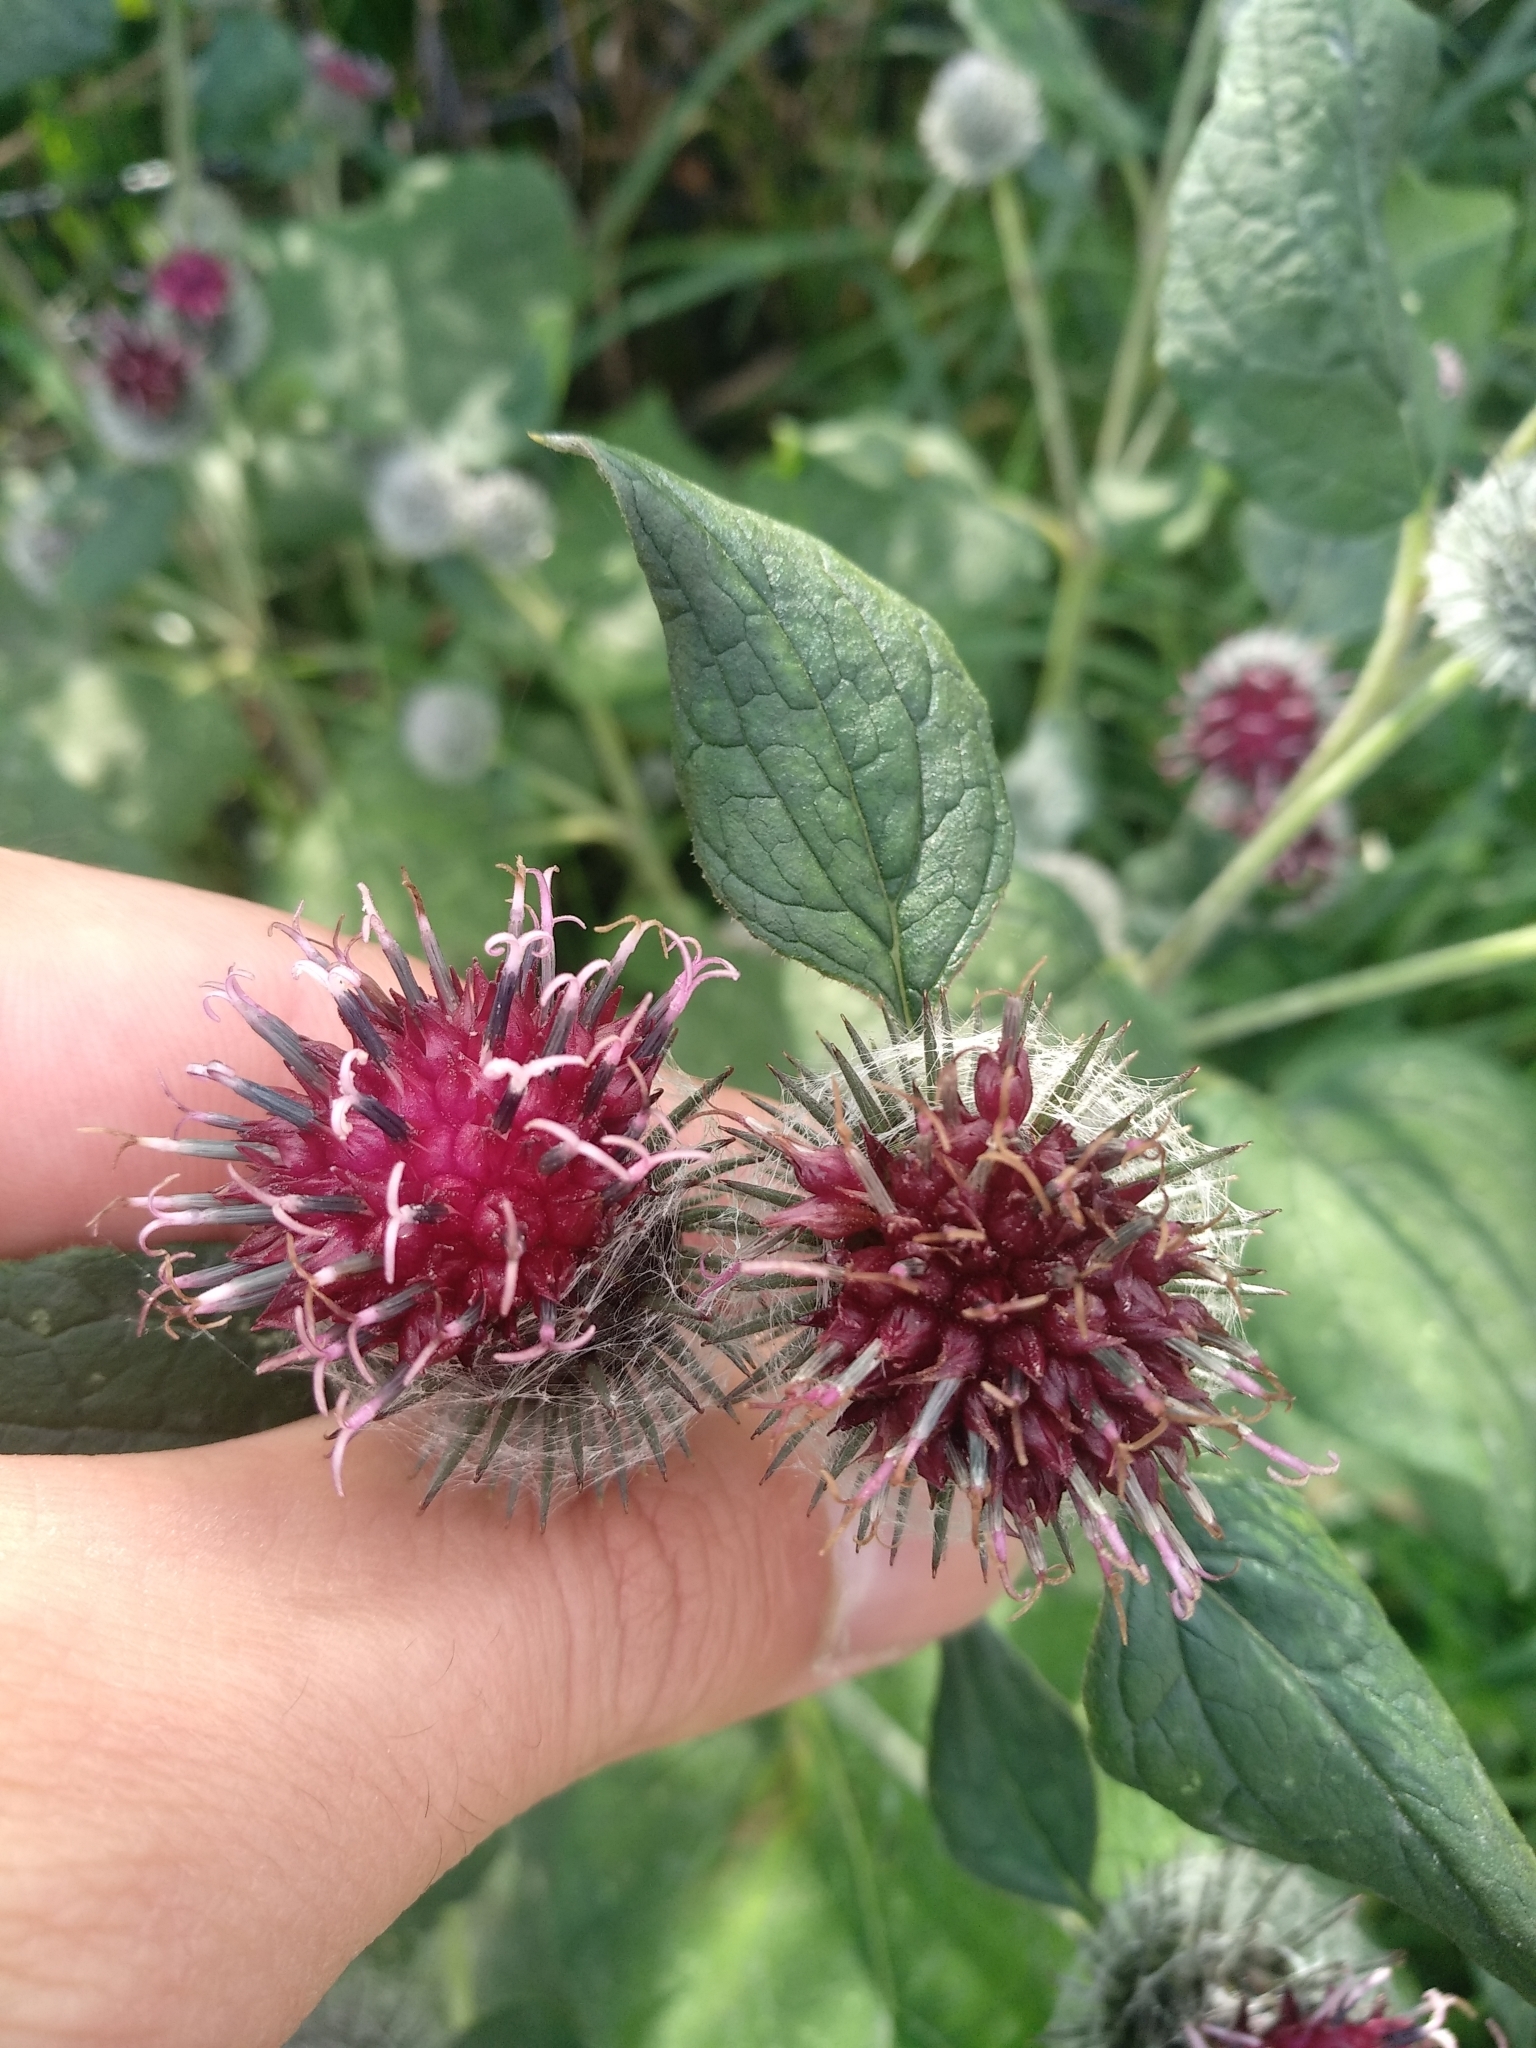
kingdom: Plantae
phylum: Tracheophyta
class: Magnoliopsida
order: Asterales
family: Asteraceae
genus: Arctium
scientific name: Arctium tomentosum
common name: Woolly burdock
